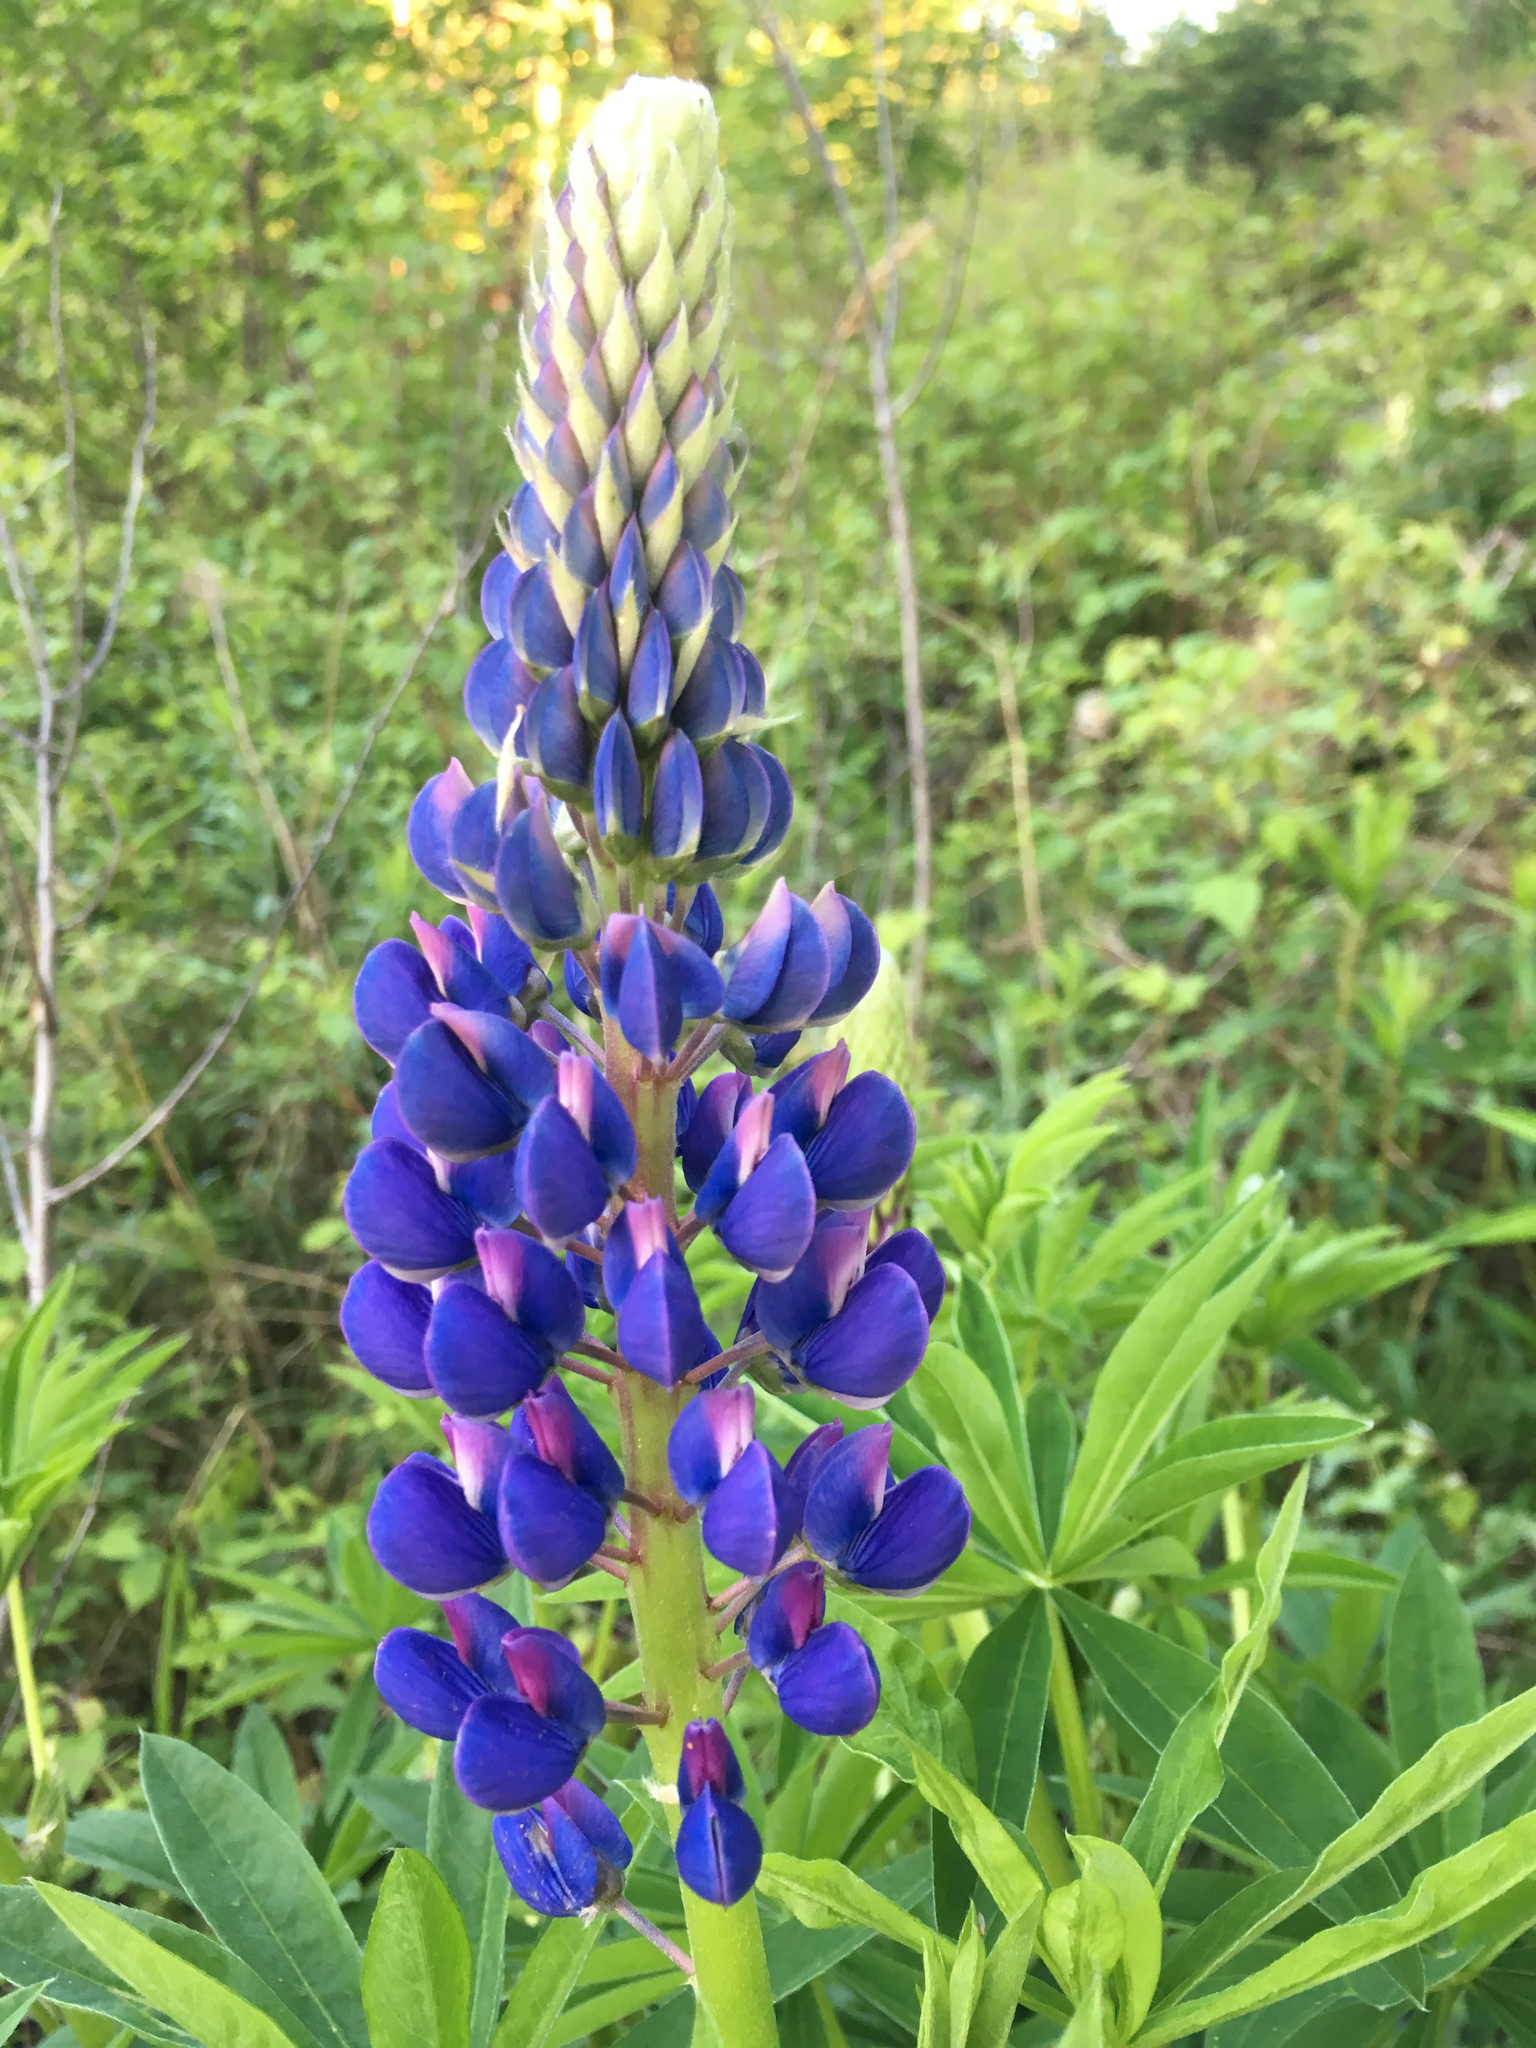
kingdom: Plantae
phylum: Tracheophyta
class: Magnoliopsida
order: Fabales
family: Fabaceae
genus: Lupinus
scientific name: Lupinus polyphyllus
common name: Garden lupin
